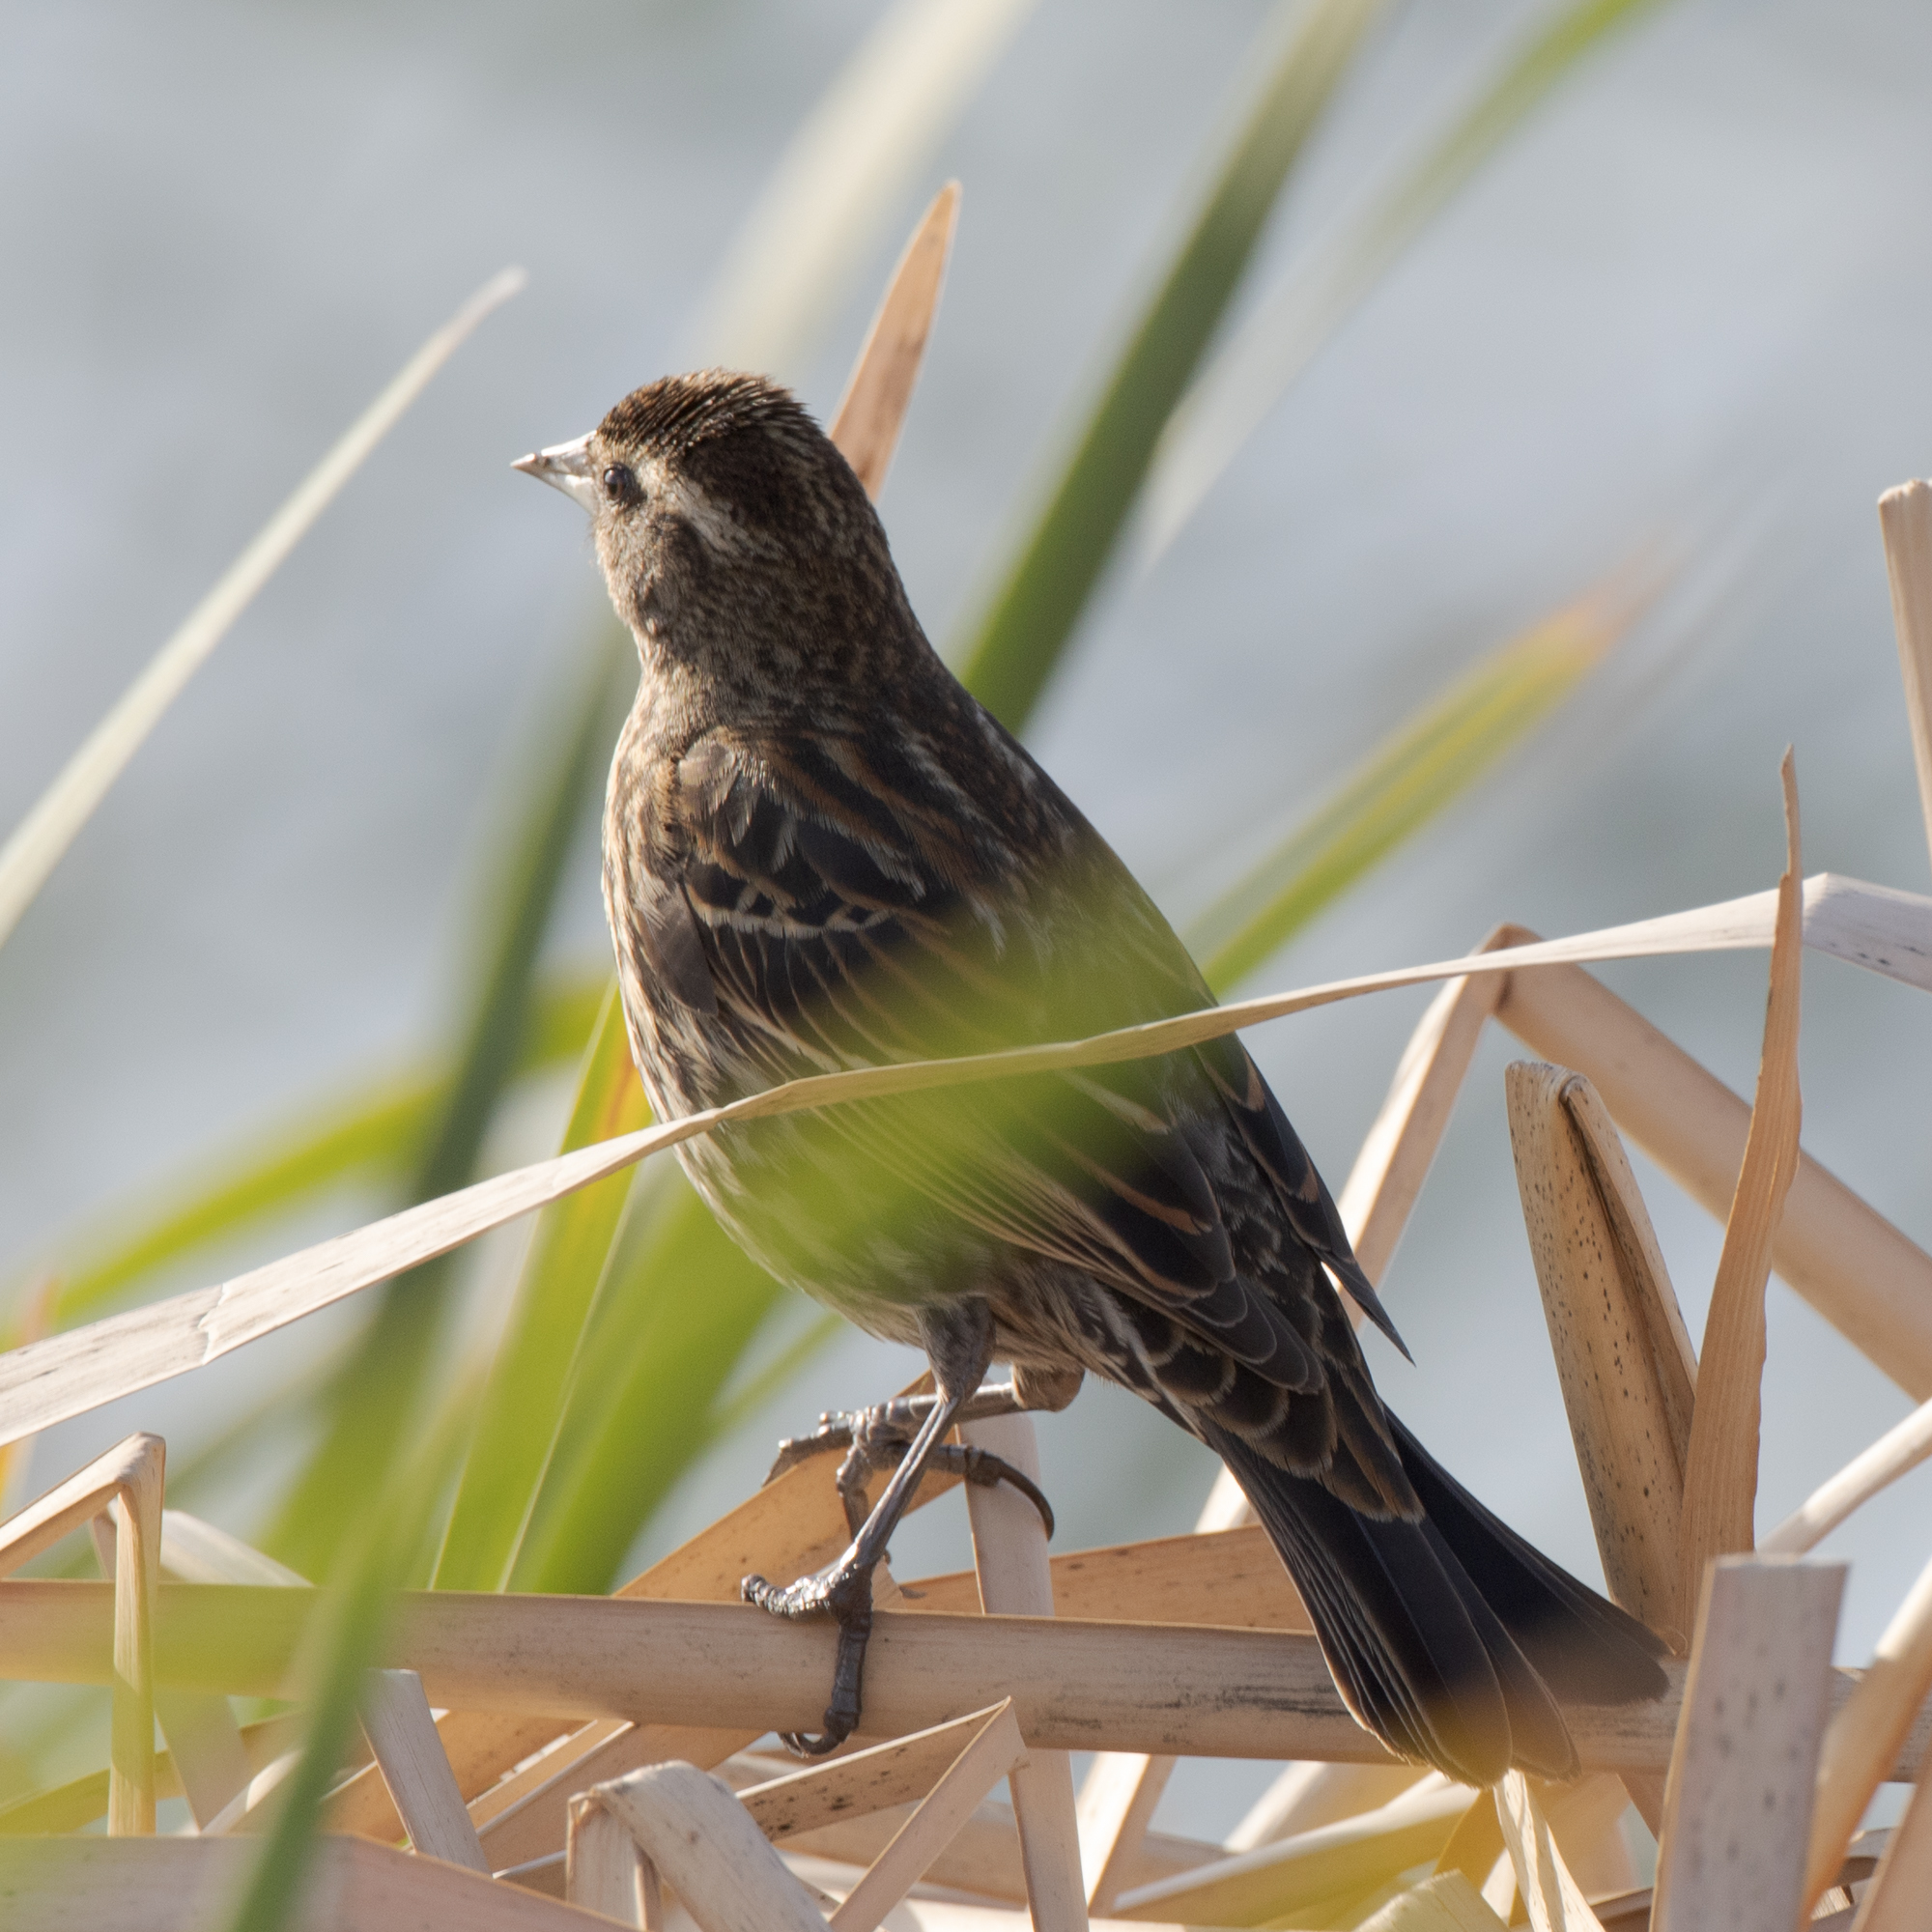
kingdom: Animalia
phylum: Chordata
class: Aves
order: Passeriformes
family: Icteridae
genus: Agelaius
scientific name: Agelaius phoeniceus
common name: Red-winged blackbird
